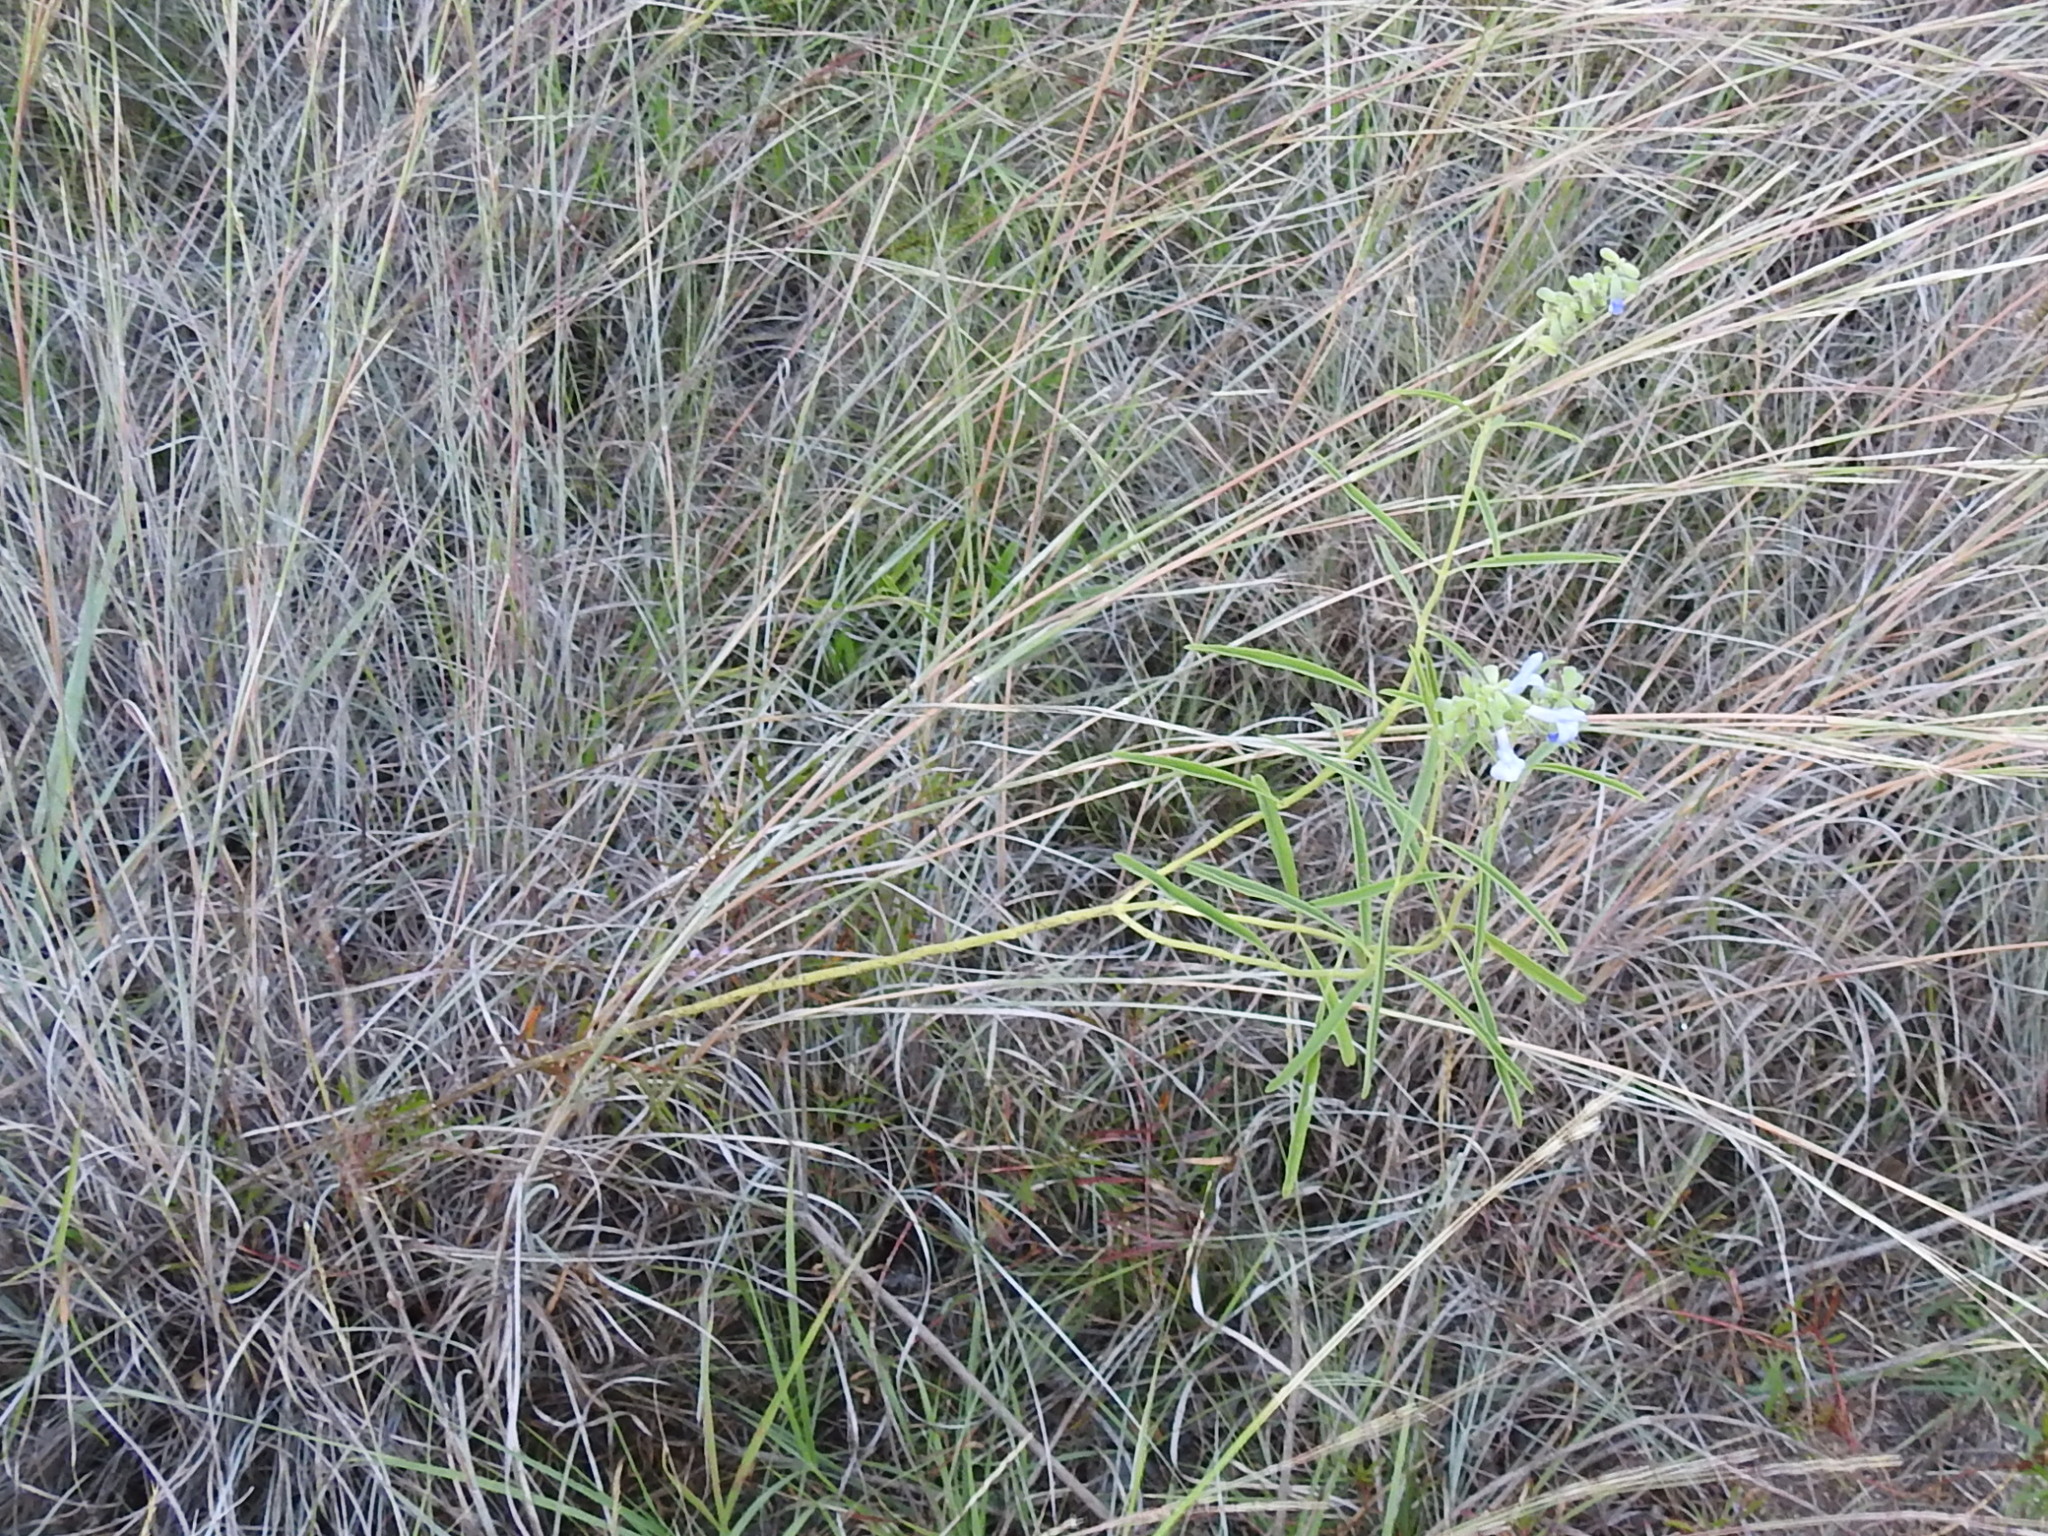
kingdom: Plantae
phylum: Tracheophyta
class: Magnoliopsida
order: Lamiales
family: Lamiaceae
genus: Salvia
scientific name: Salvia azurea
